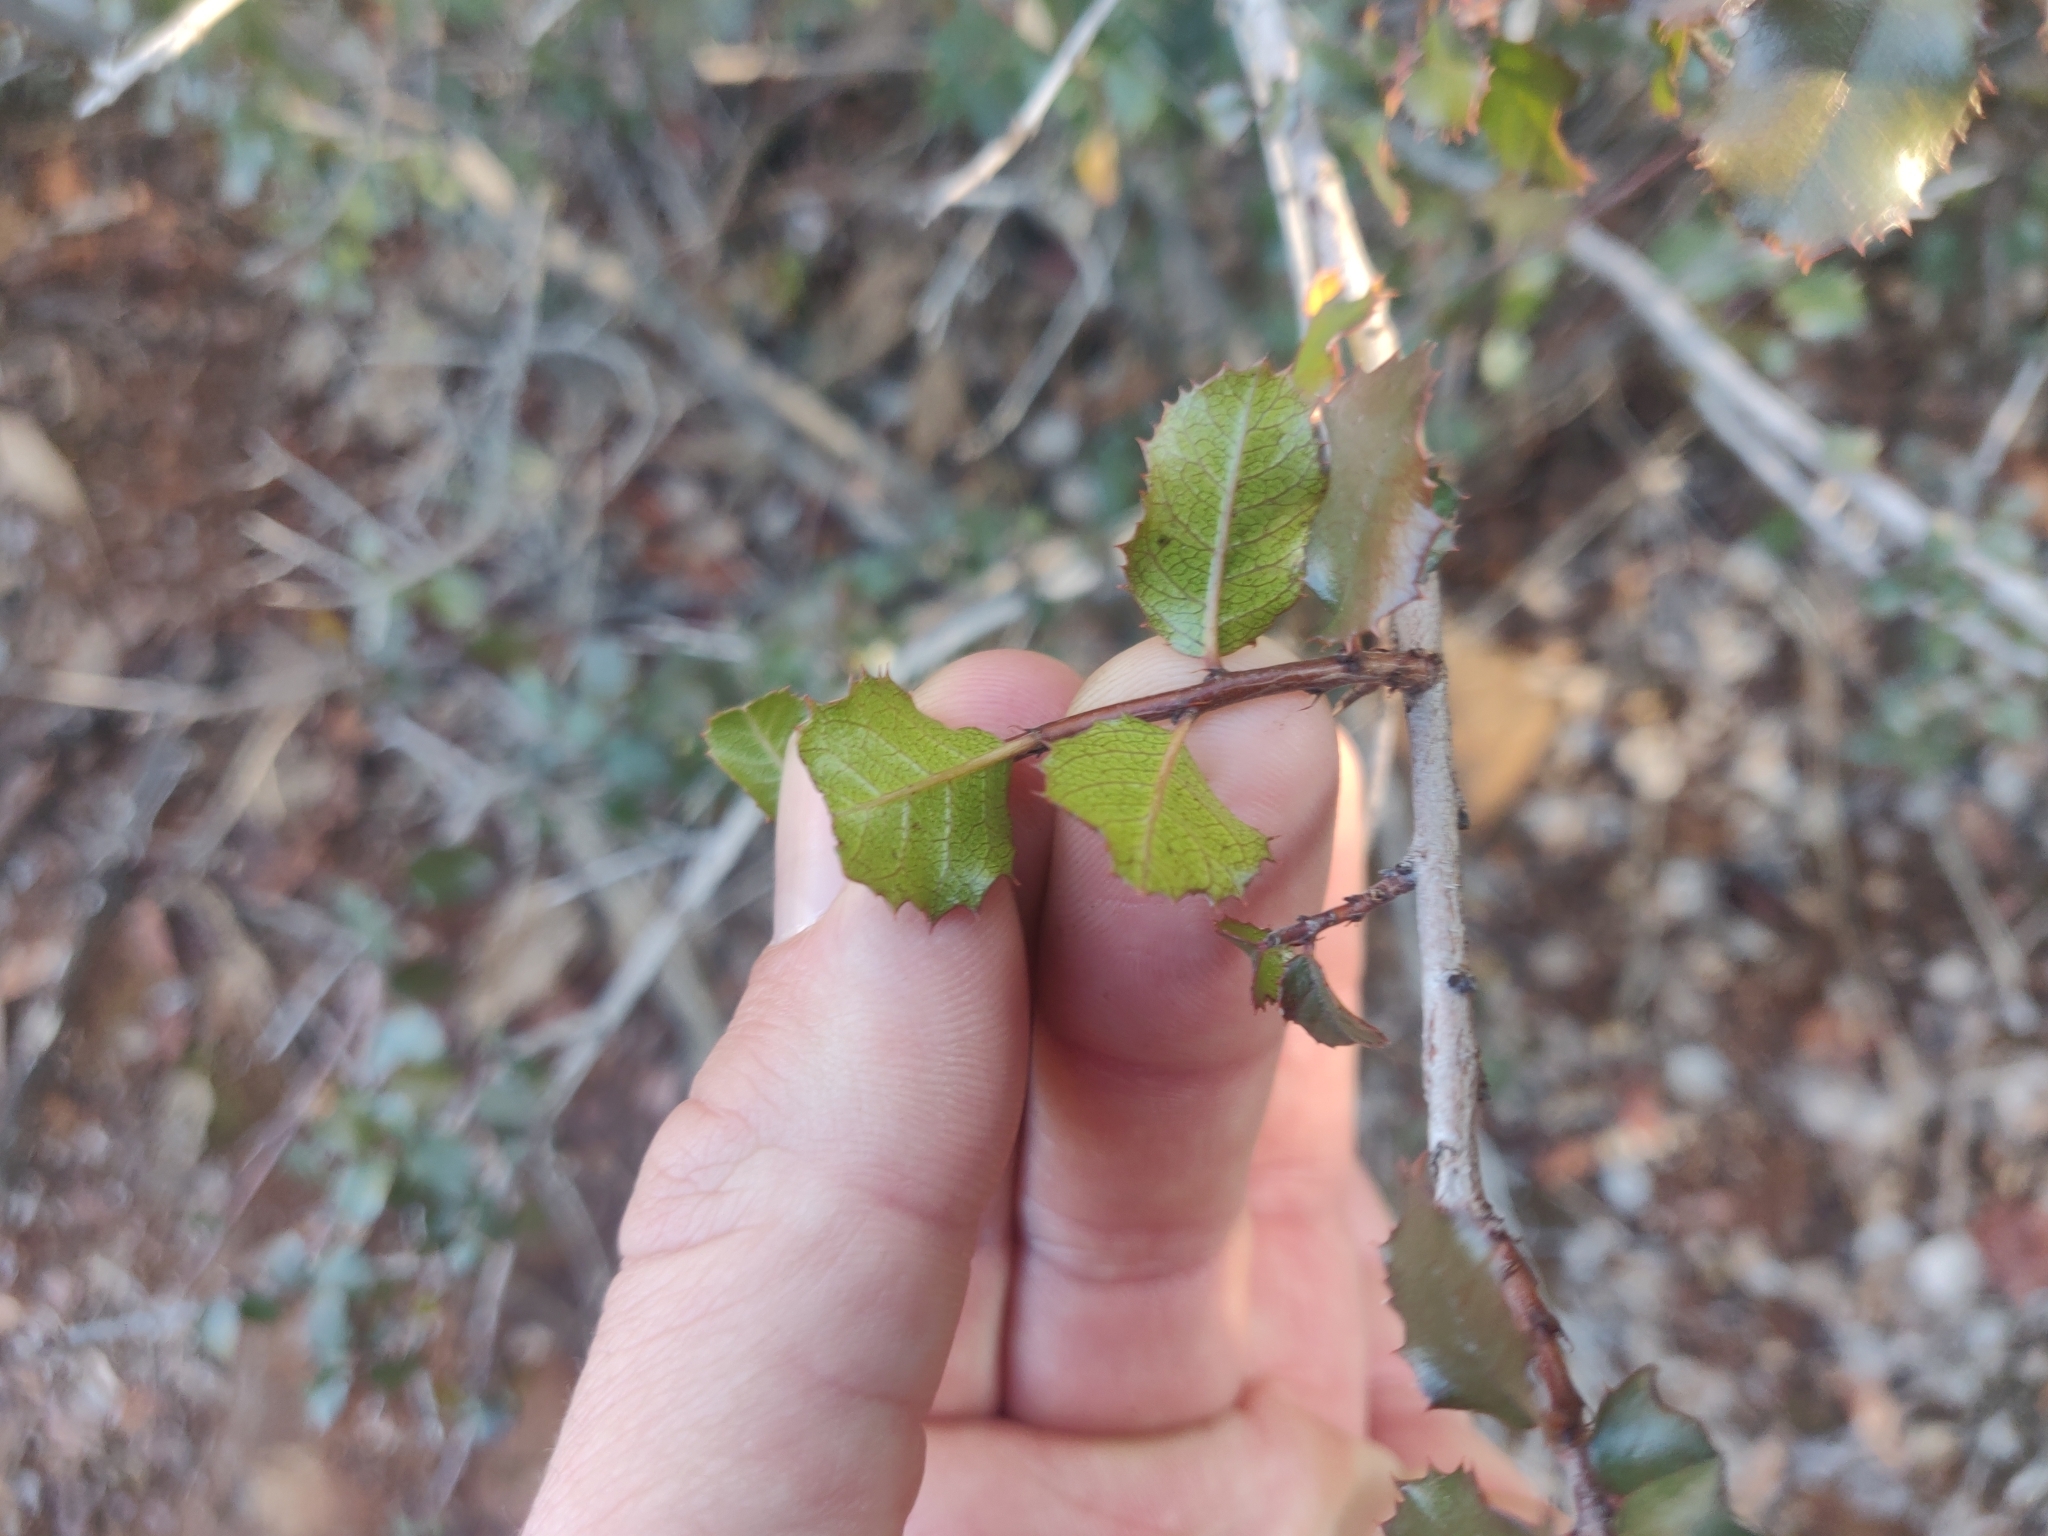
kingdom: Plantae
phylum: Tracheophyta
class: Magnoliopsida
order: Rosales
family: Rhamnaceae
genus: Endotropis
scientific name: Endotropis crocea
